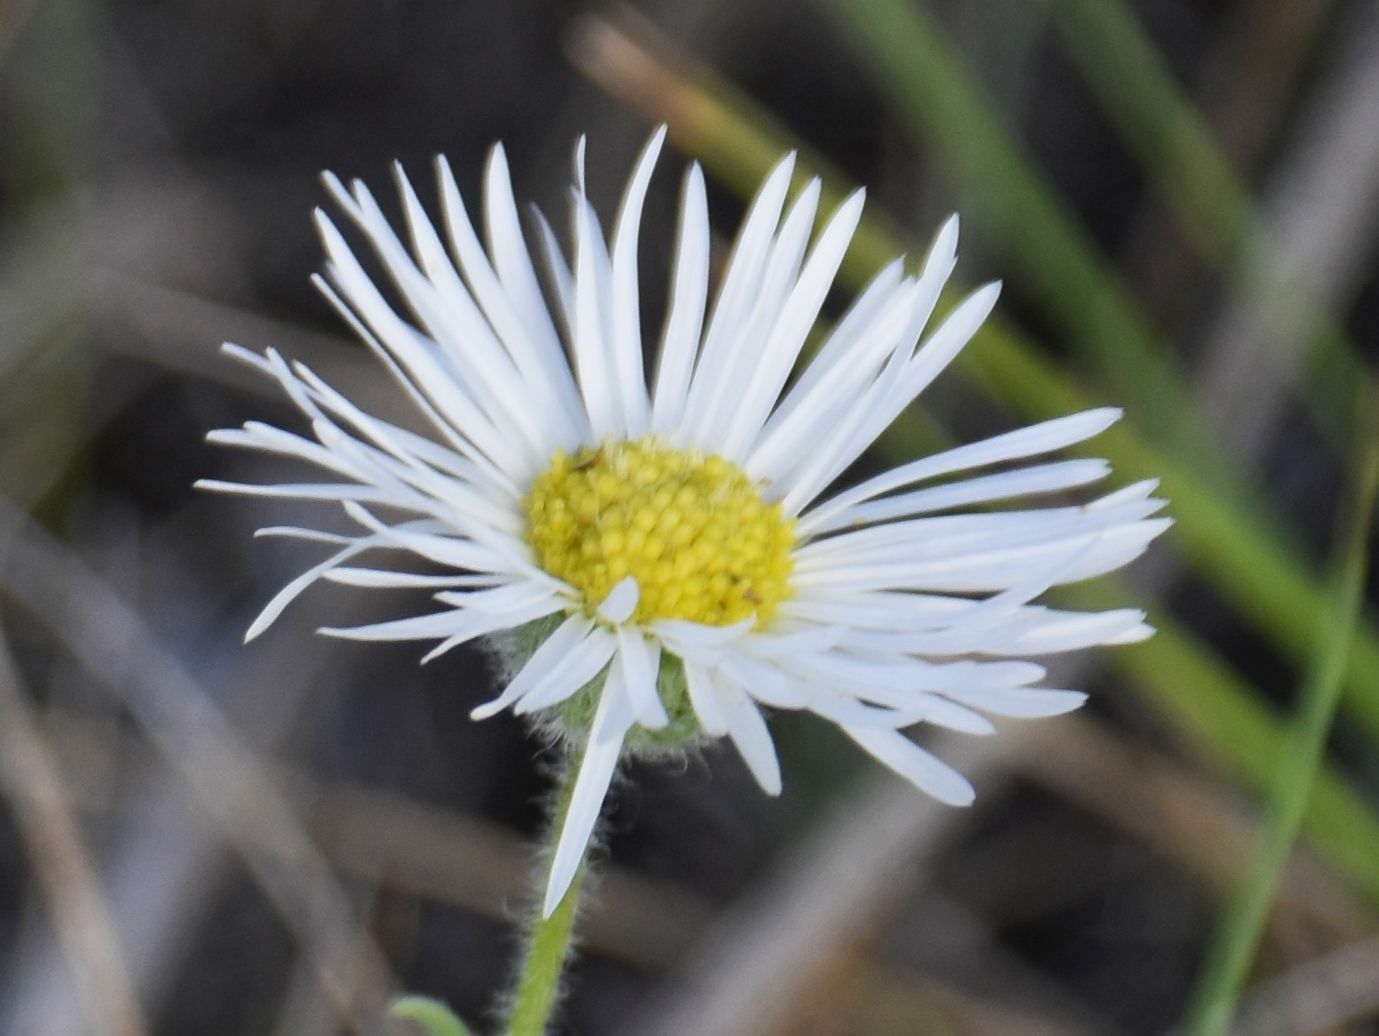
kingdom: Plantae
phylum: Tracheophyta
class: Magnoliopsida
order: Asterales
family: Asteraceae
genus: Erigeron
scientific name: Erigeron caespitosus
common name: Tufted fleabane
